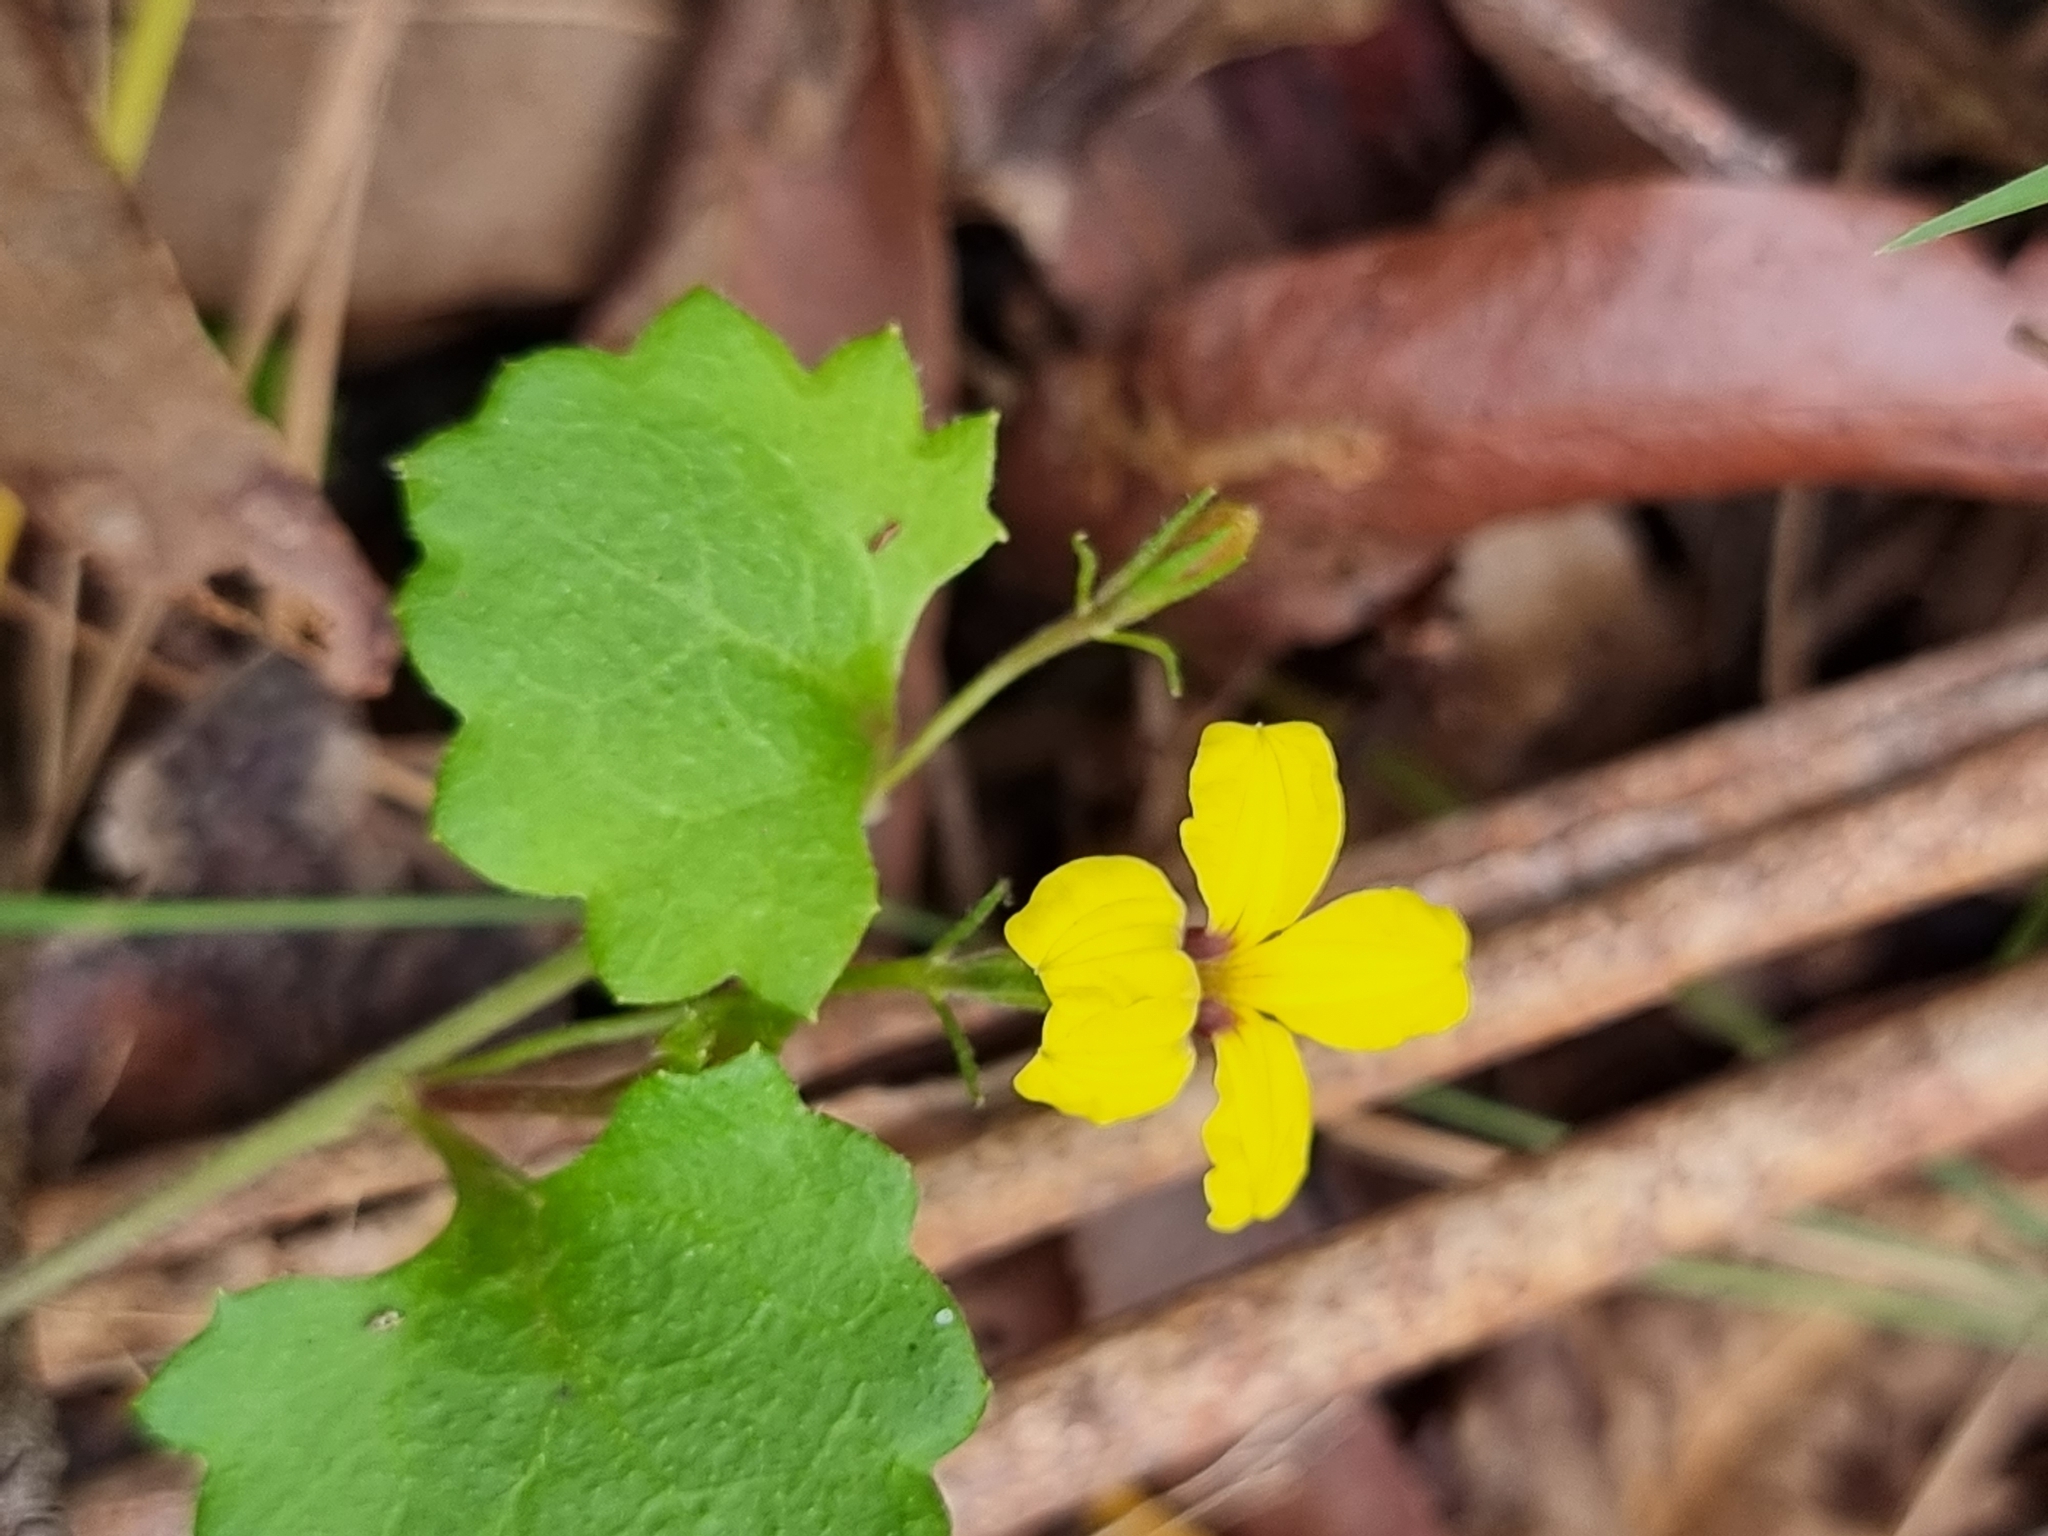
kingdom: Plantae
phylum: Tracheophyta
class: Magnoliopsida
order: Asterales
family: Goodeniaceae
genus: Goodenia
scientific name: Goodenia rotundifolia
